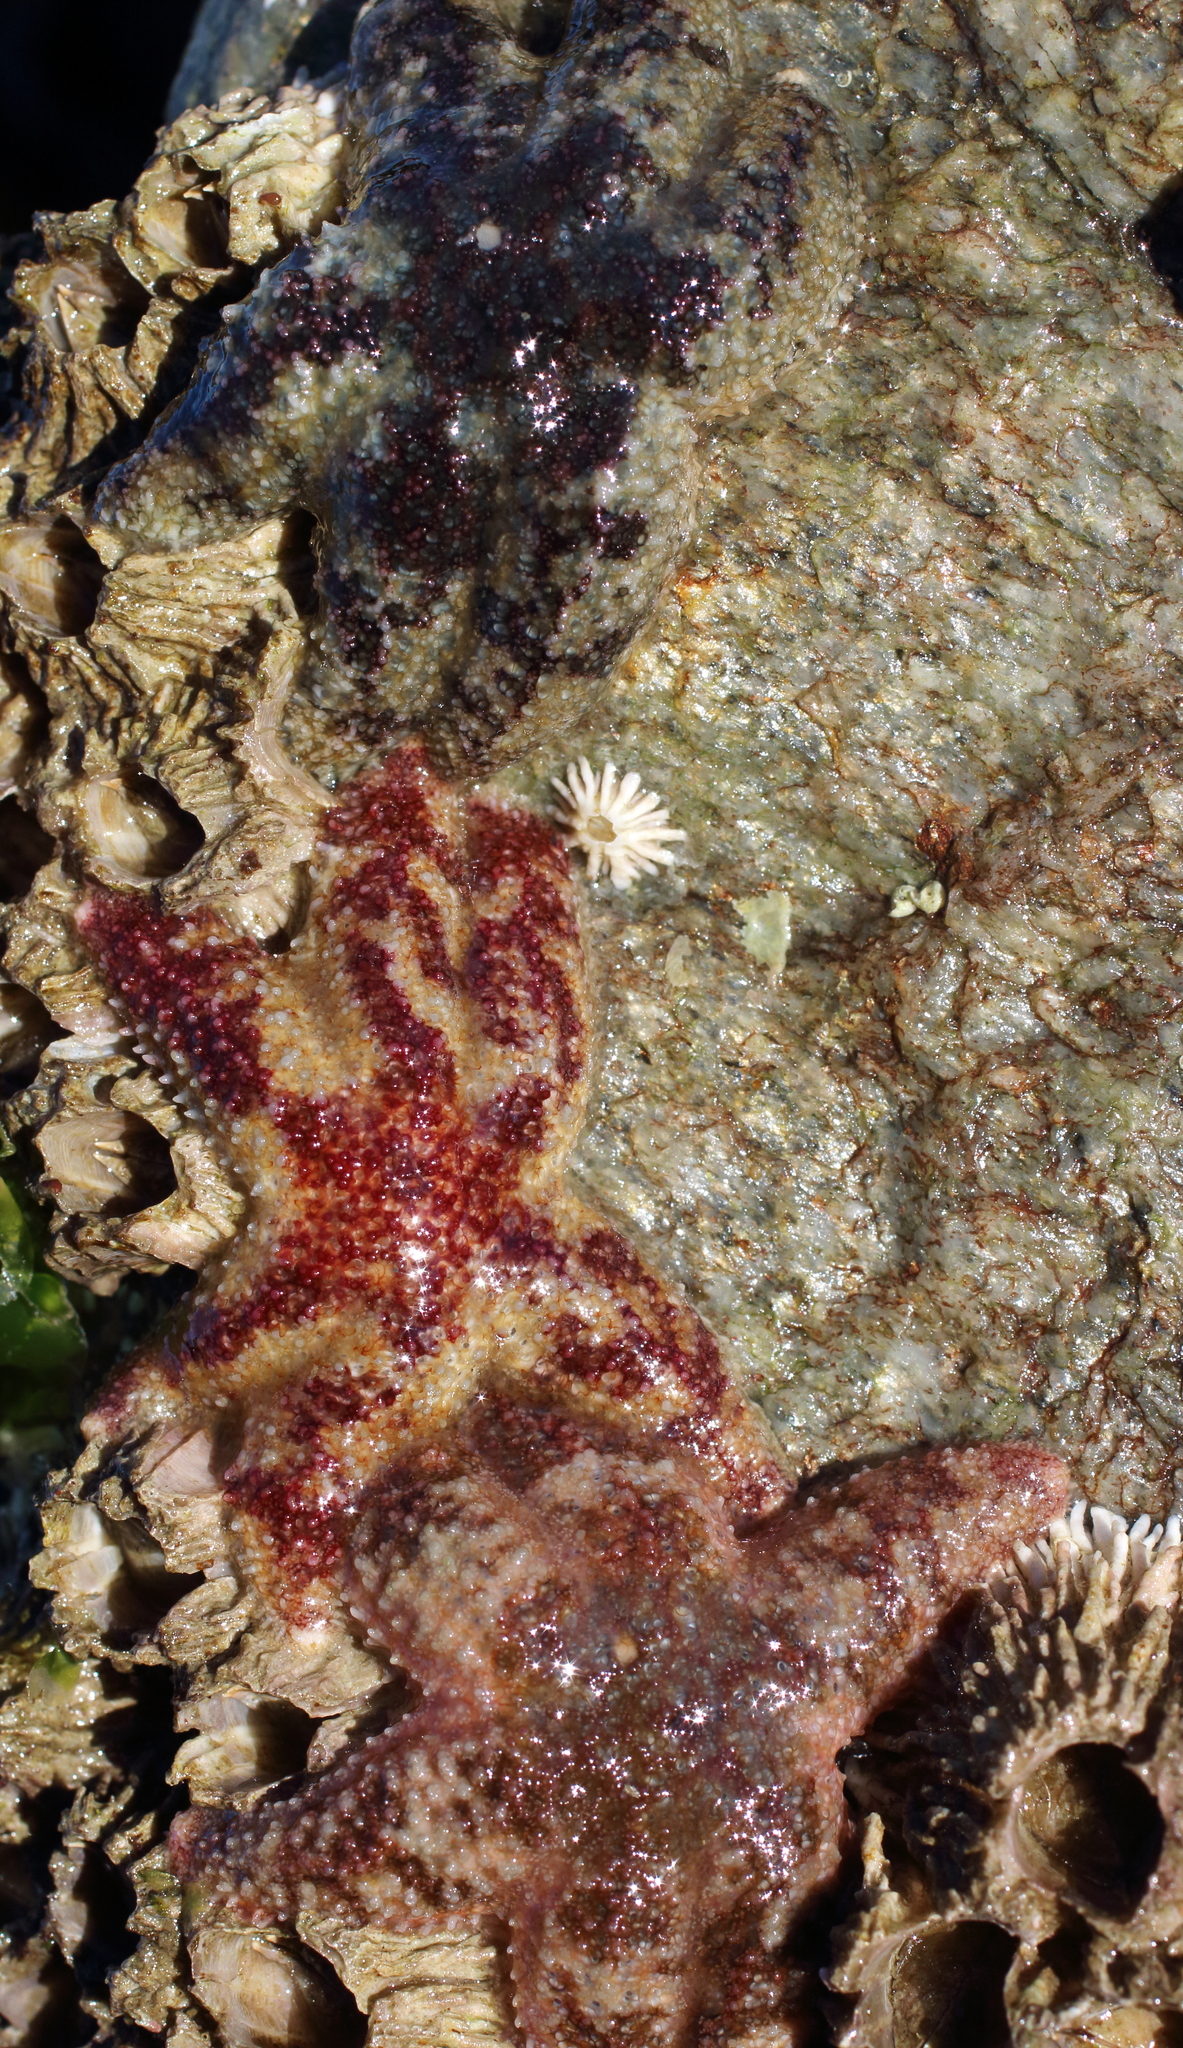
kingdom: Animalia
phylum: Echinodermata
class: Asteroidea
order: Forcipulatida
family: Asteriidae
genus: Leptasterias
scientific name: Leptasterias hexactis
